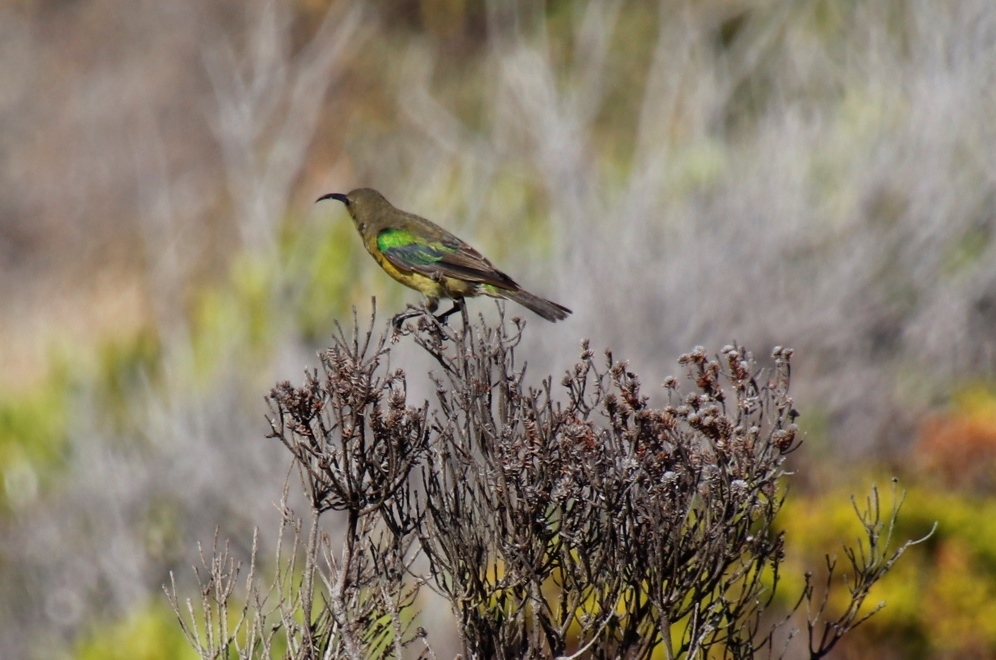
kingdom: Animalia
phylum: Chordata
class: Aves
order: Passeriformes
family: Nectariniidae
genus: Nectarinia
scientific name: Nectarinia famosa
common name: Malachite sunbird
